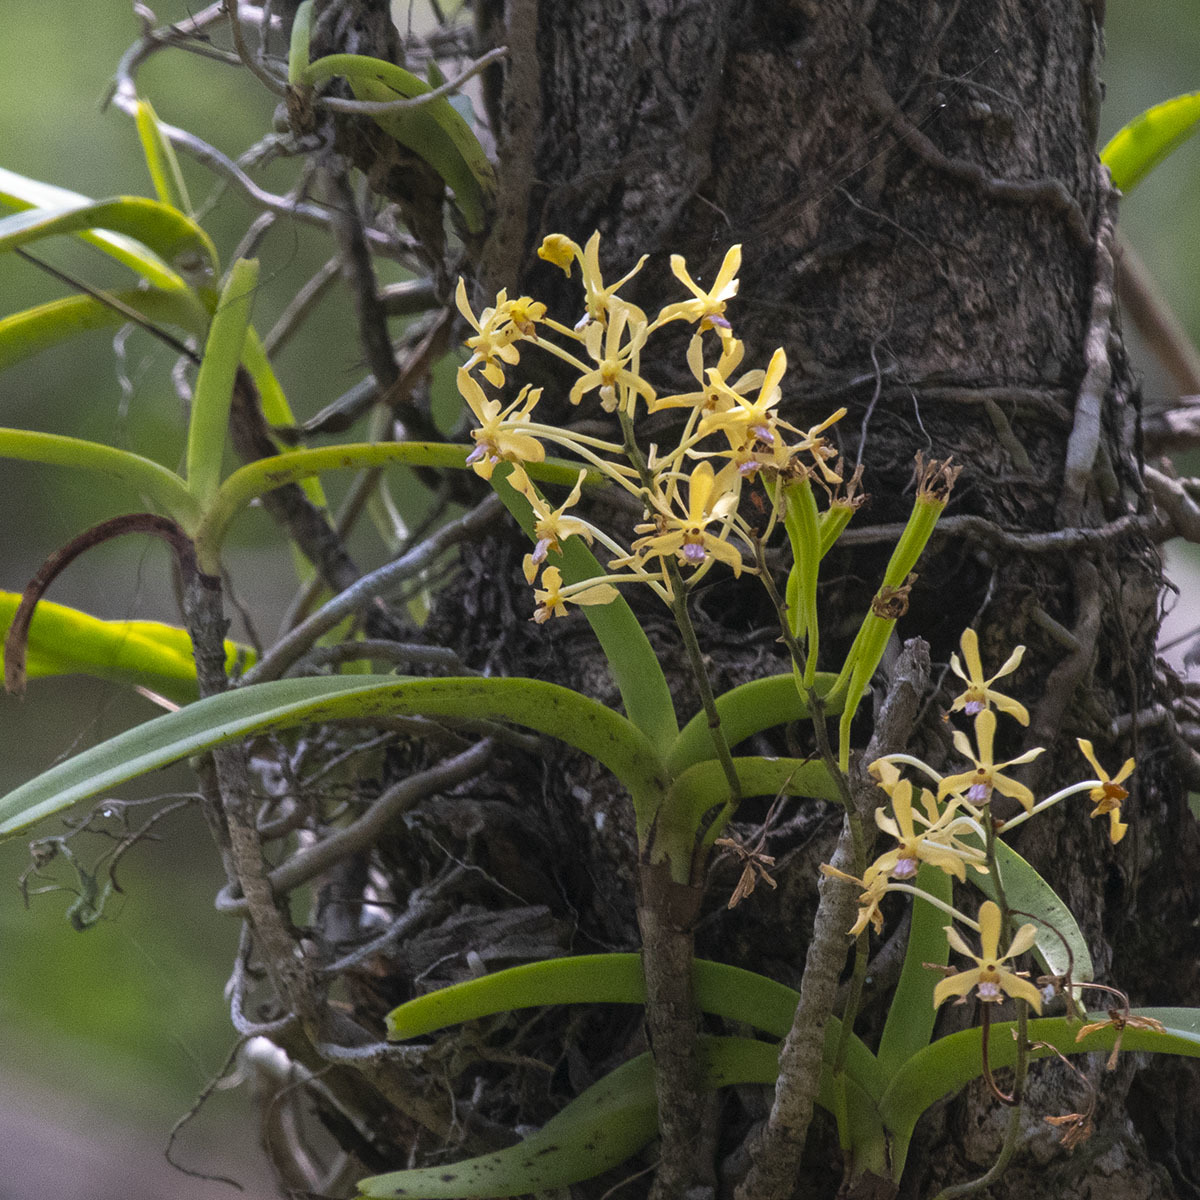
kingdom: Plantae
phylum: Tracheophyta
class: Liliopsida
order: Asparagales
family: Orchidaceae
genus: Vanda
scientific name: Vanda testacea
